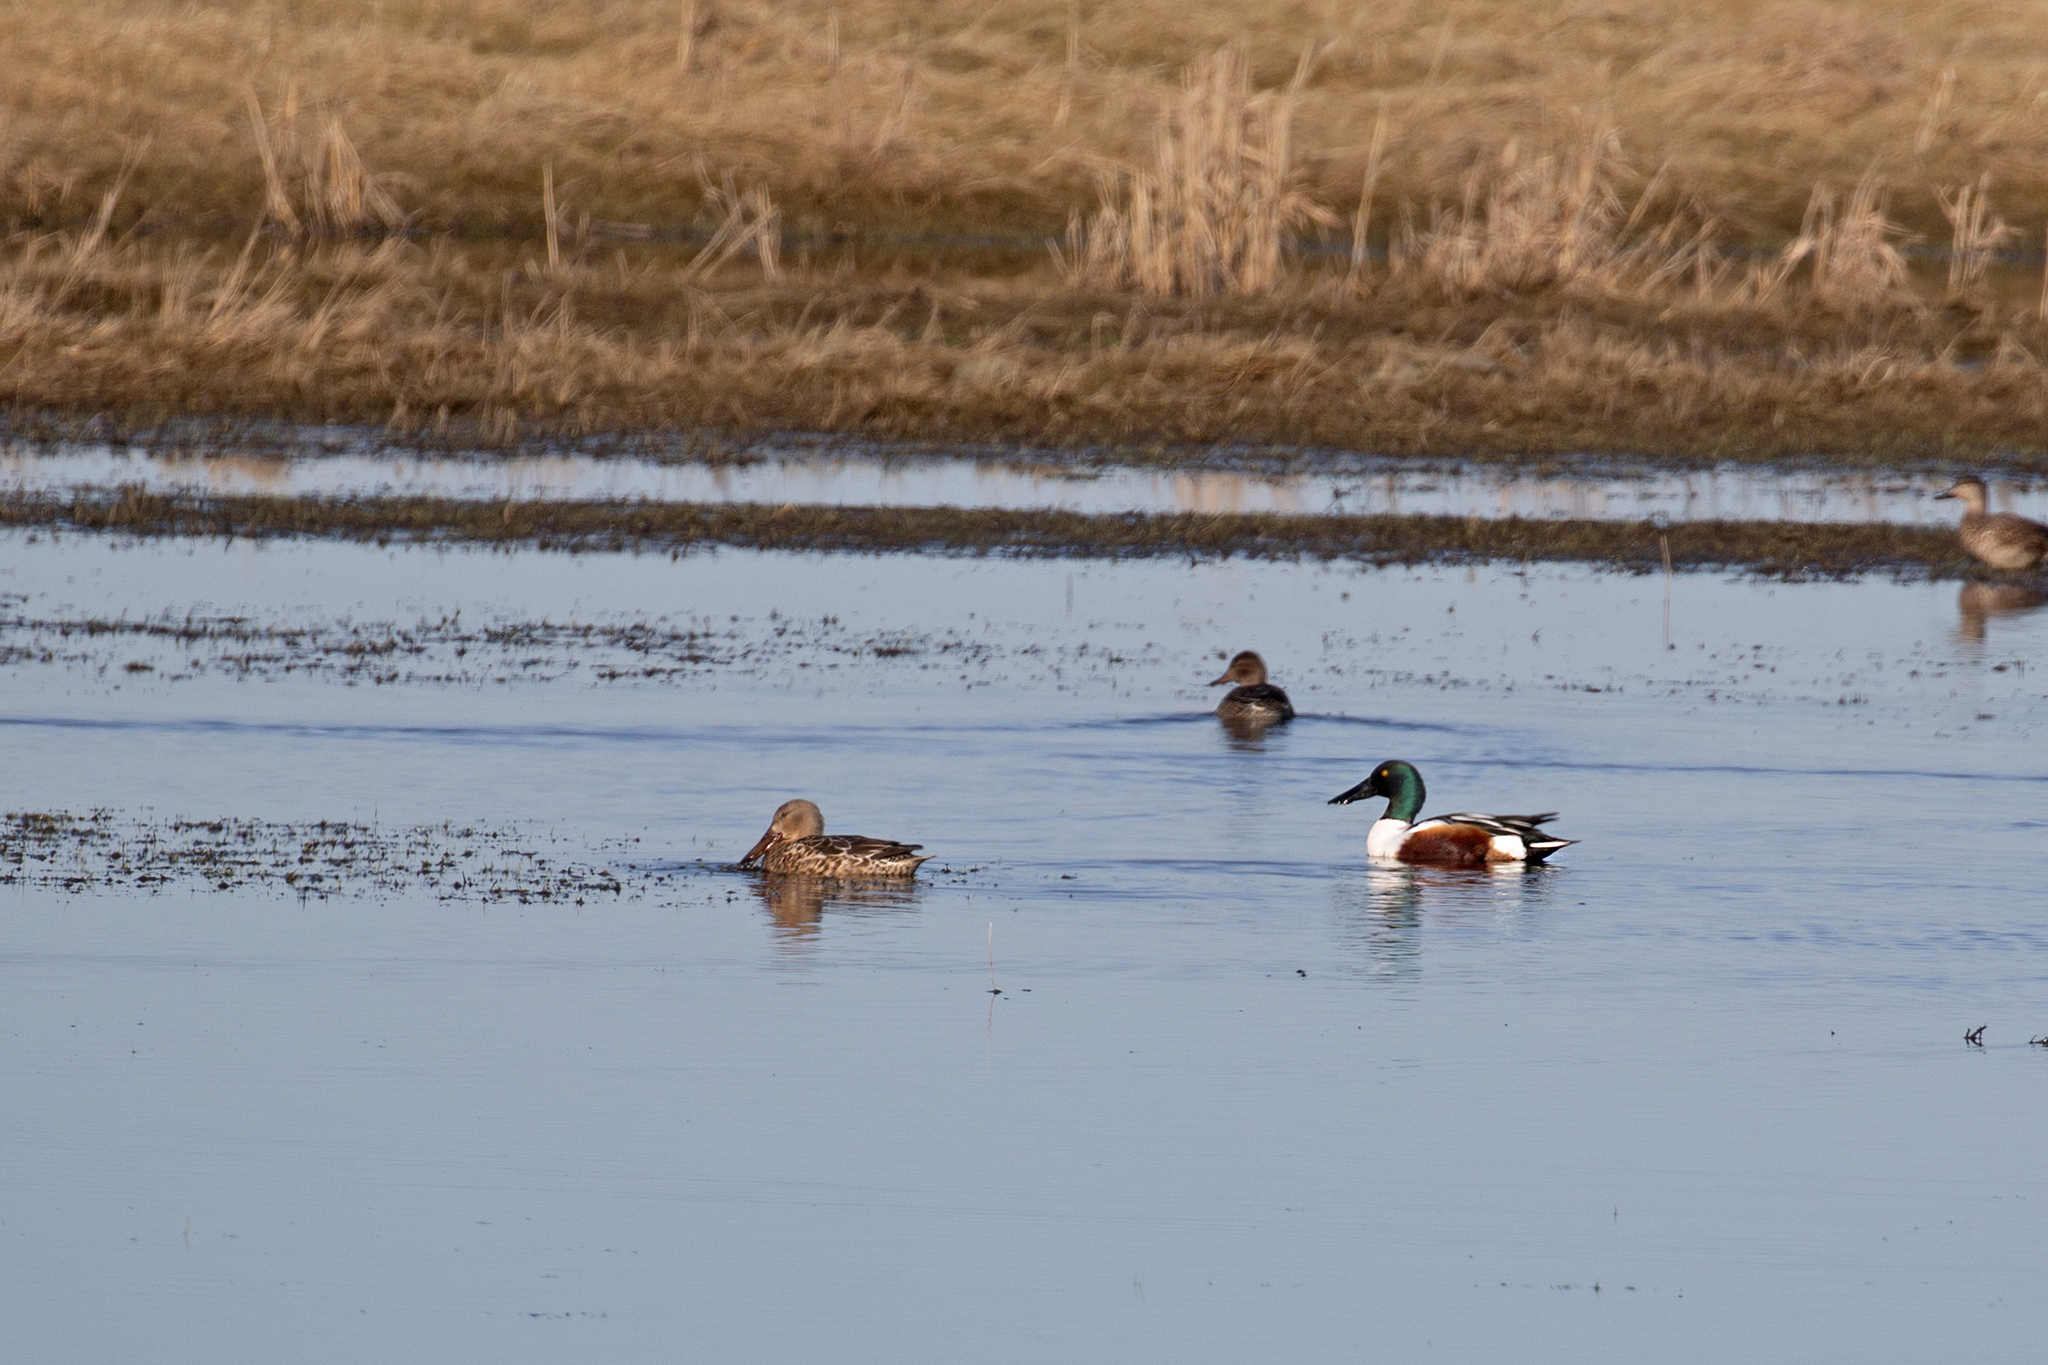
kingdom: Animalia
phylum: Chordata
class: Aves
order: Anseriformes
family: Anatidae
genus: Spatula
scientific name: Spatula clypeata
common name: Northern shoveler
